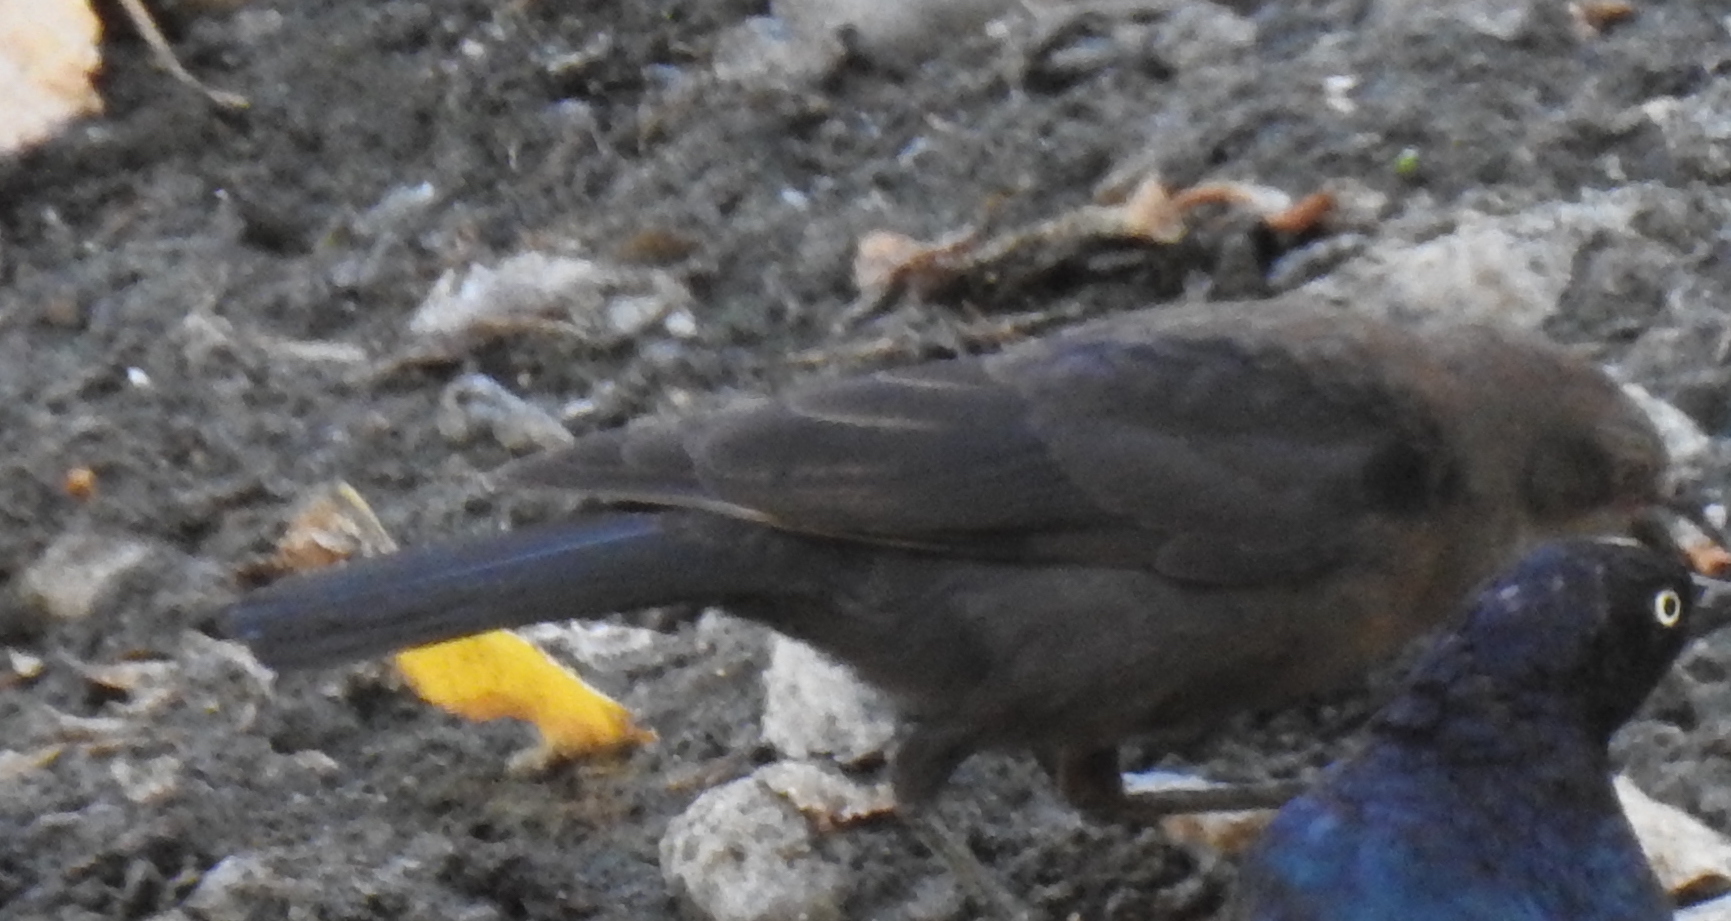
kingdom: Animalia
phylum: Chordata
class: Aves
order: Passeriformes
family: Icteridae
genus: Euphagus
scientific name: Euphagus cyanocephalus
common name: Brewer's blackbird
